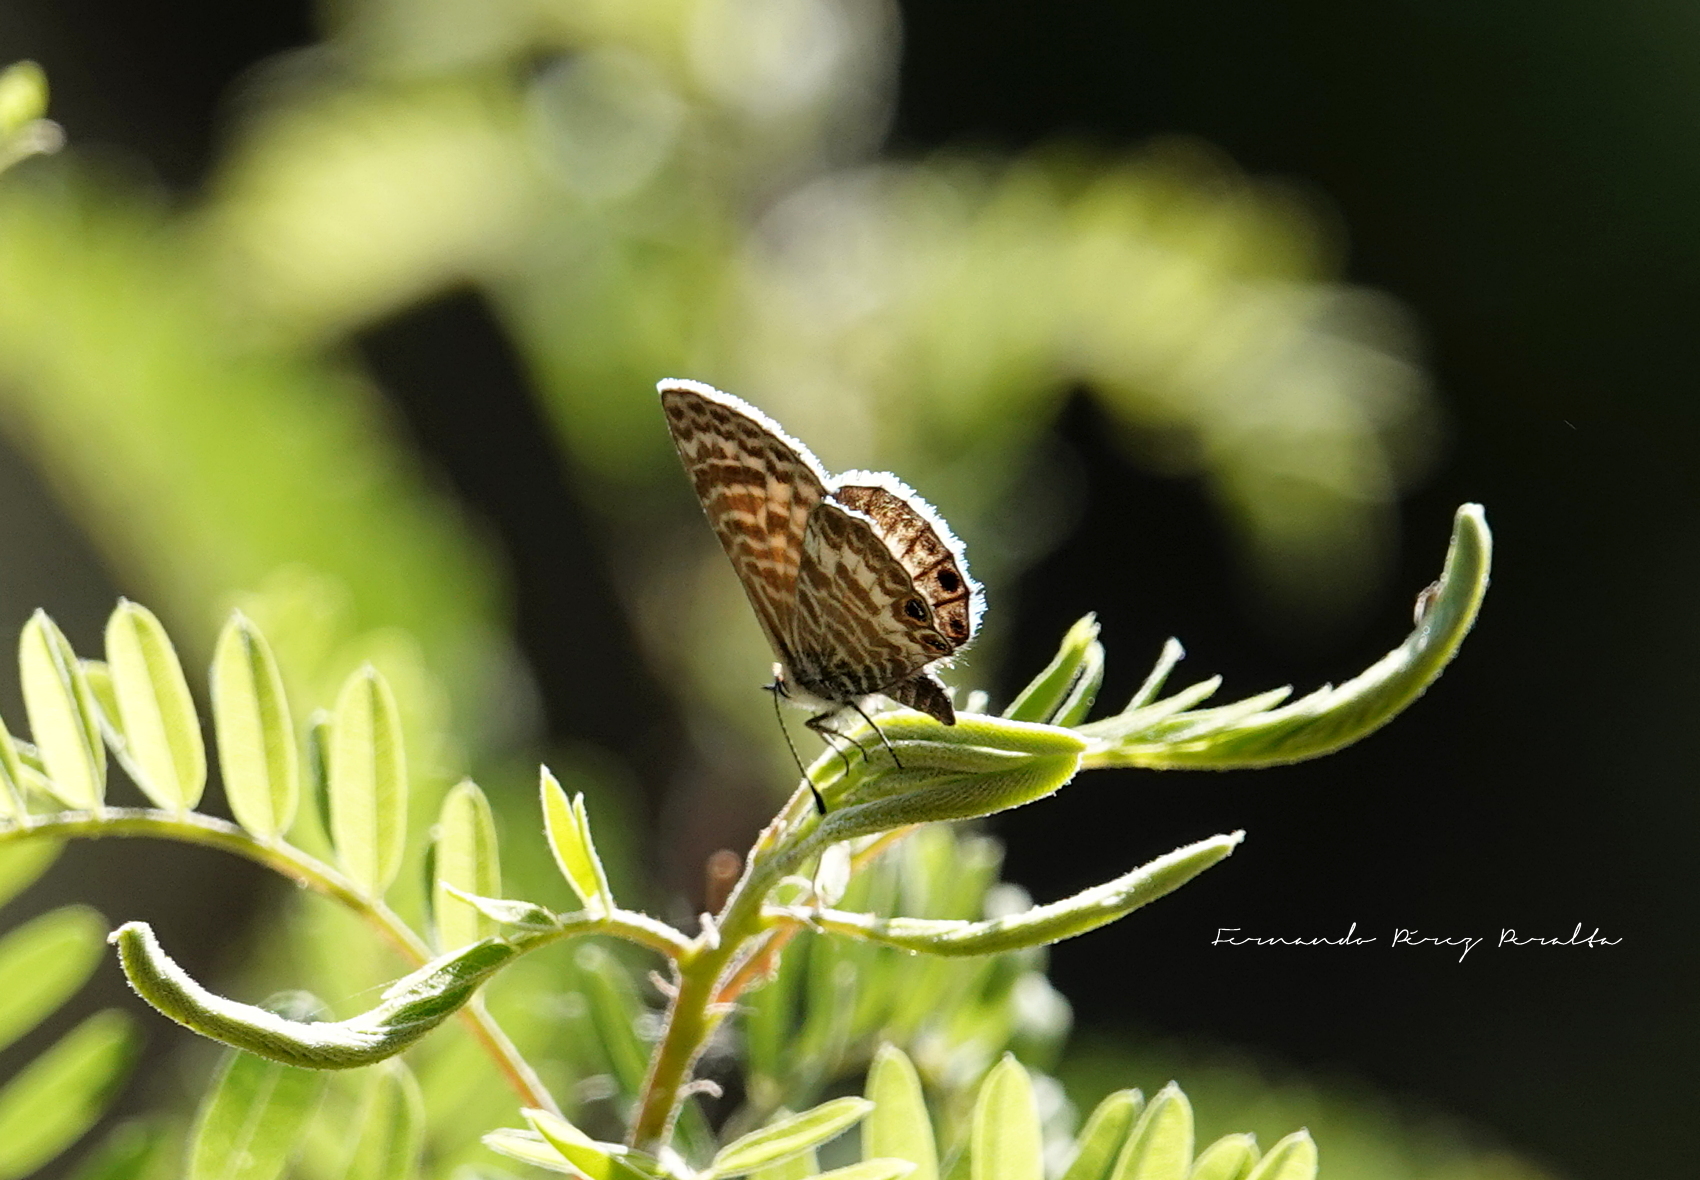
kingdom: Animalia
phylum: Arthropoda
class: Insecta
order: Lepidoptera
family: Lycaenidae
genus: Leptotes
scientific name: Leptotes marina
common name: Marine blue
